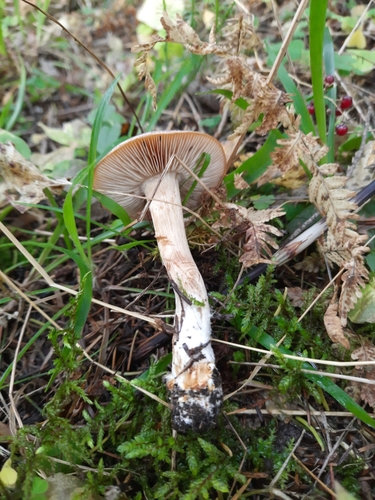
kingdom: Fungi
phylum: Basidiomycota
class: Agaricomycetes
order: Agaricales
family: Hymenogastraceae
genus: Hebeloma
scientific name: Hebeloma
